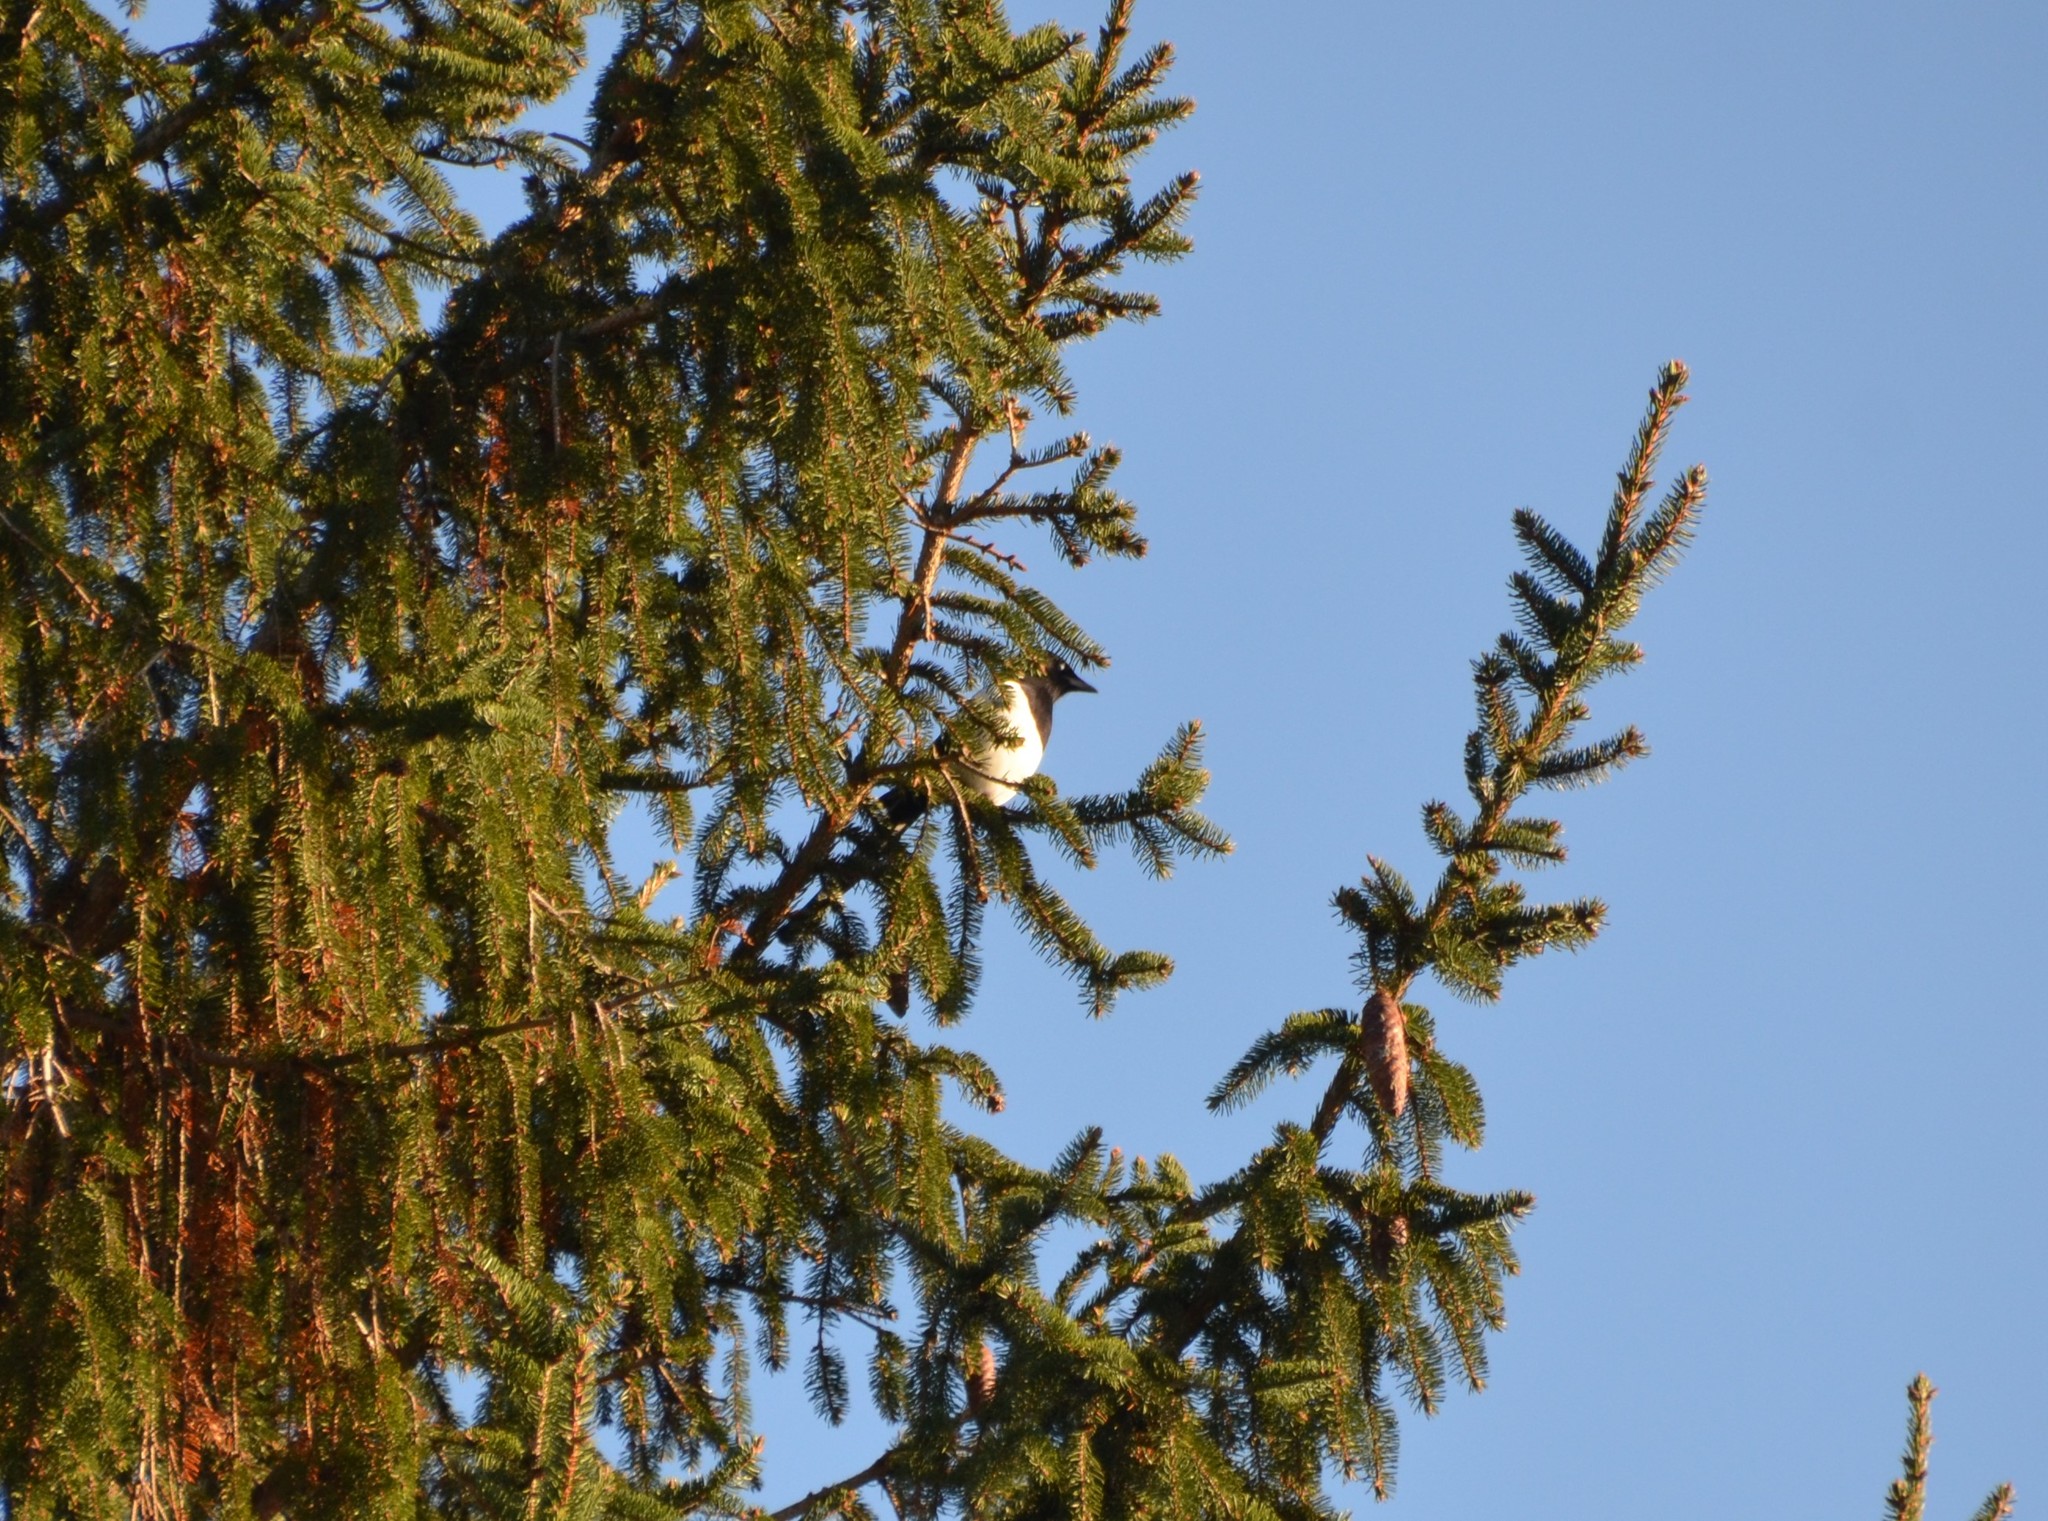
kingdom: Animalia
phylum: Chordata
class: Aves
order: Passeriformes
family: Corvidae
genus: Pica
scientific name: Pica pica
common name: Eurasian magpie
